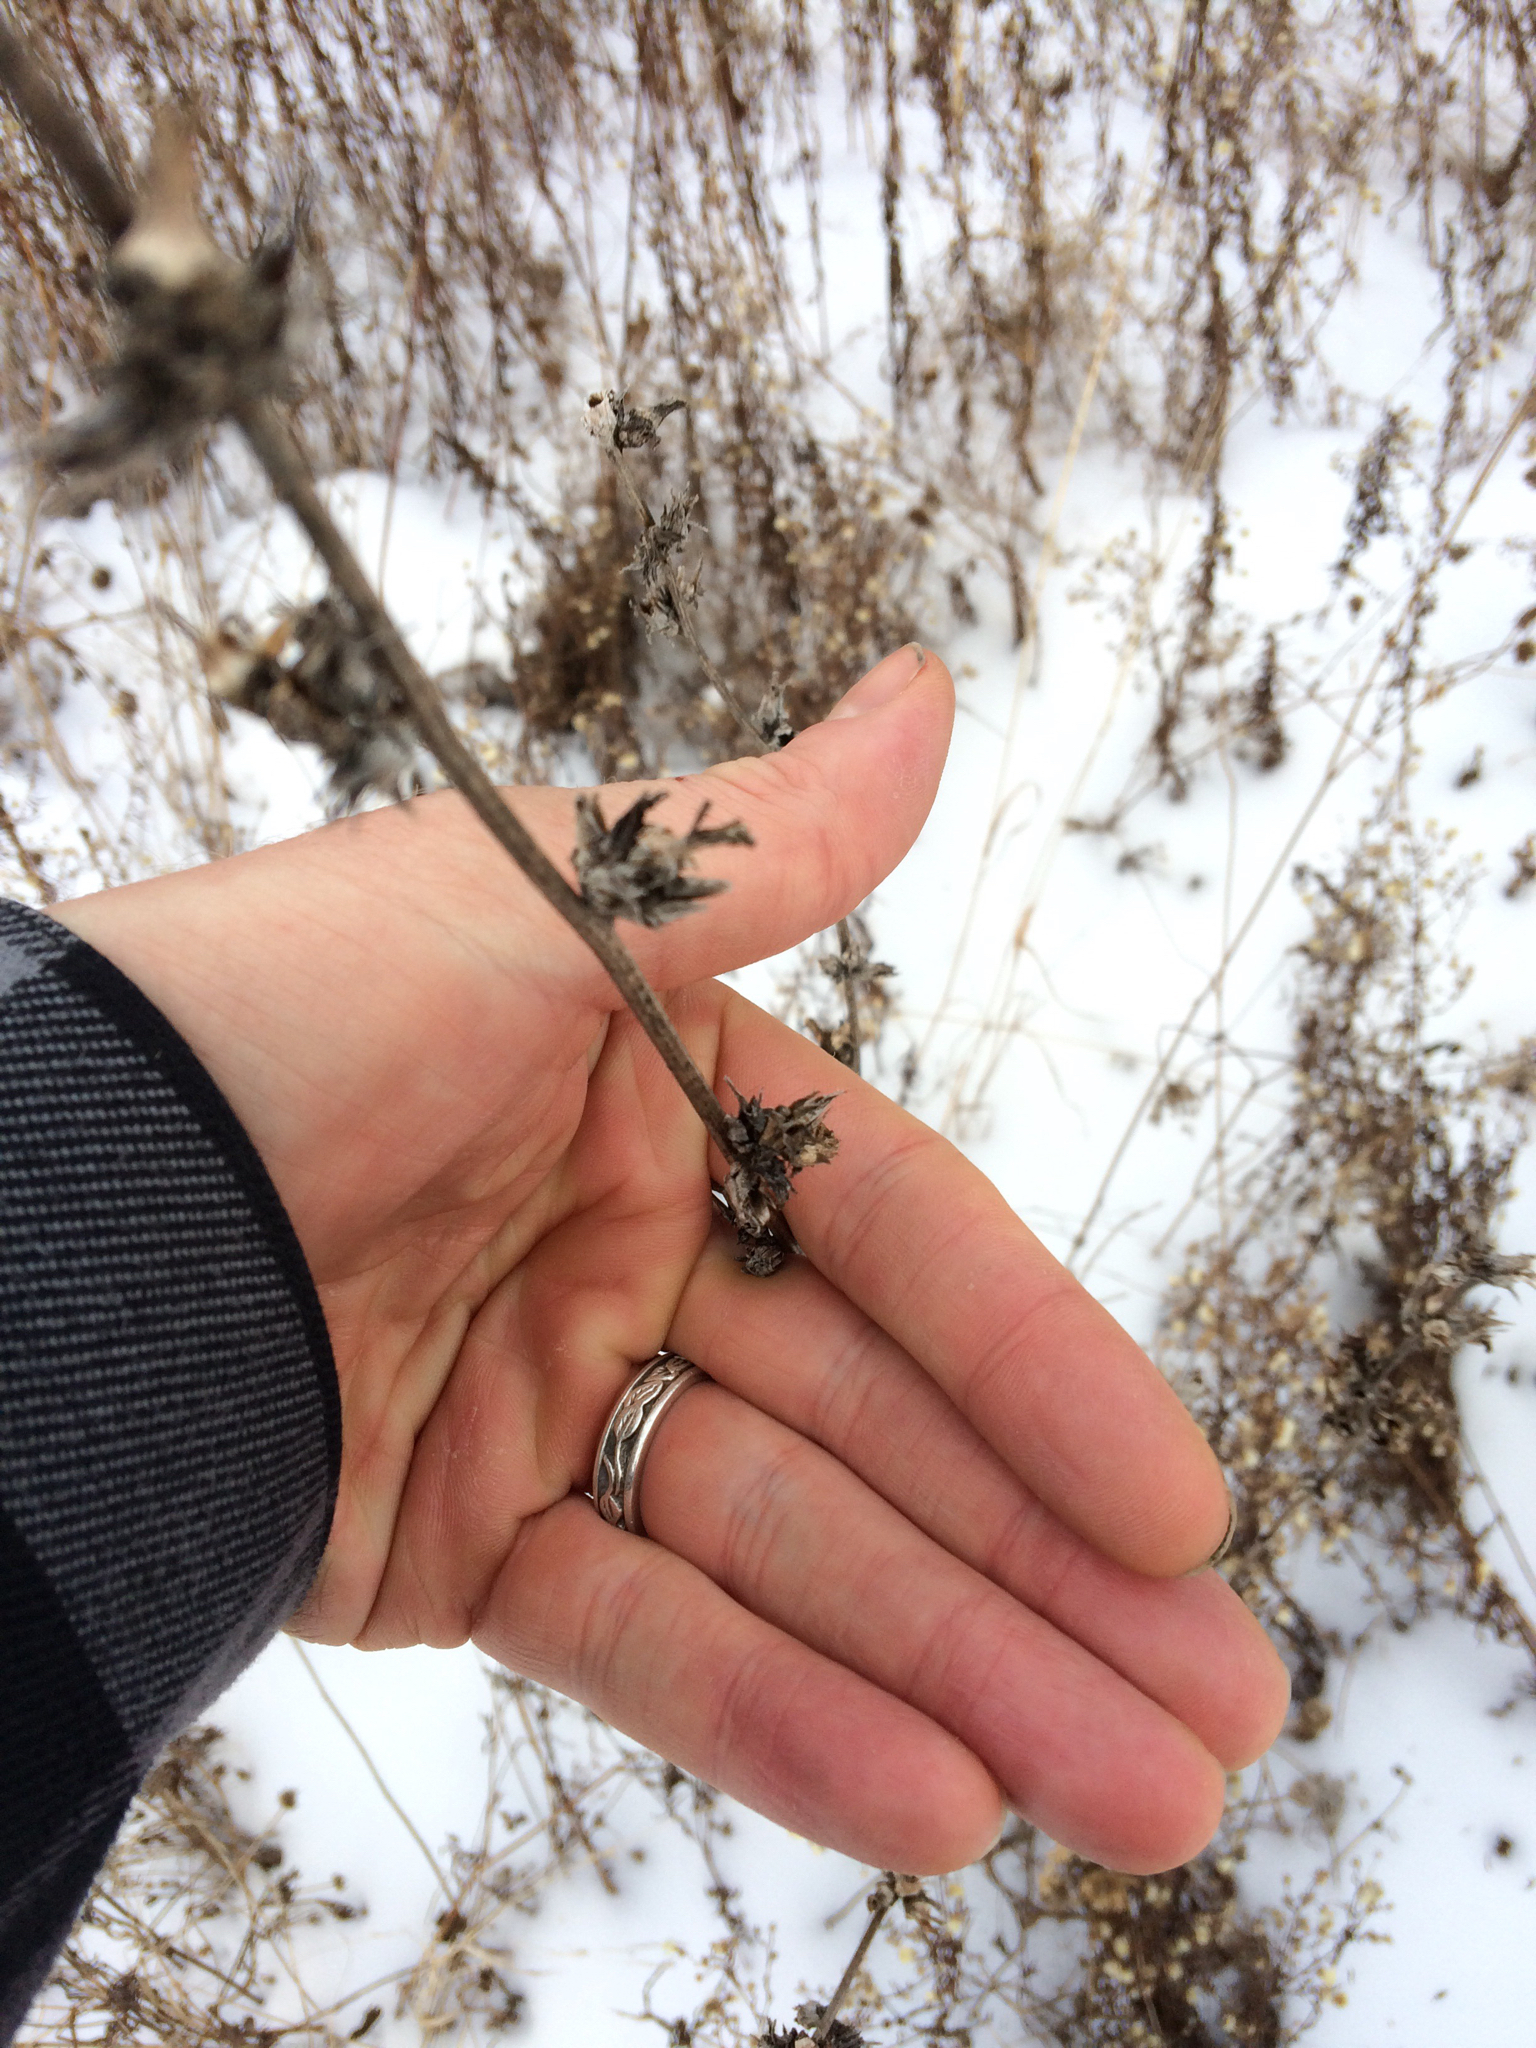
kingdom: Plantae
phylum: Tracheophyta
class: Magnoliopsida
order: Asterales
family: Asteraceae
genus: Cichorium
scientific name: Cichorium intybus
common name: Chicory
